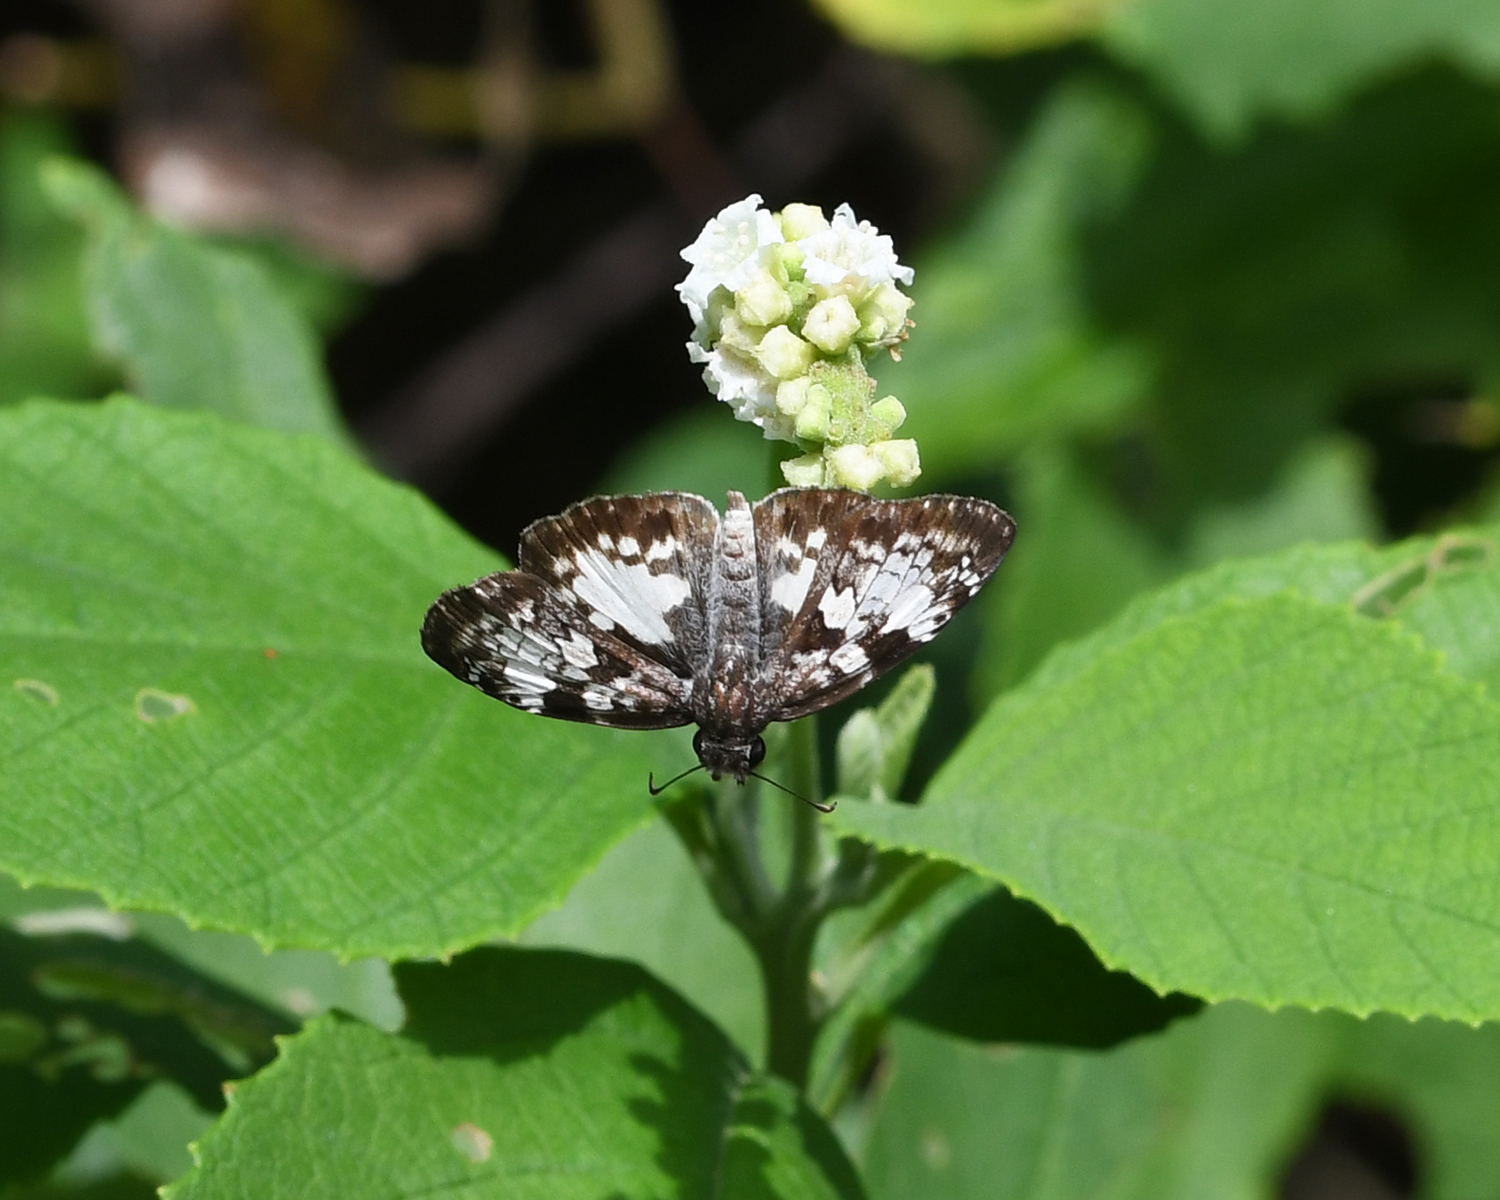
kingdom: Animalia
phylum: Arthropoda
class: Insecta
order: Lepidoptera
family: Hesperiidae
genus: Chiothion
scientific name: Chiothion
